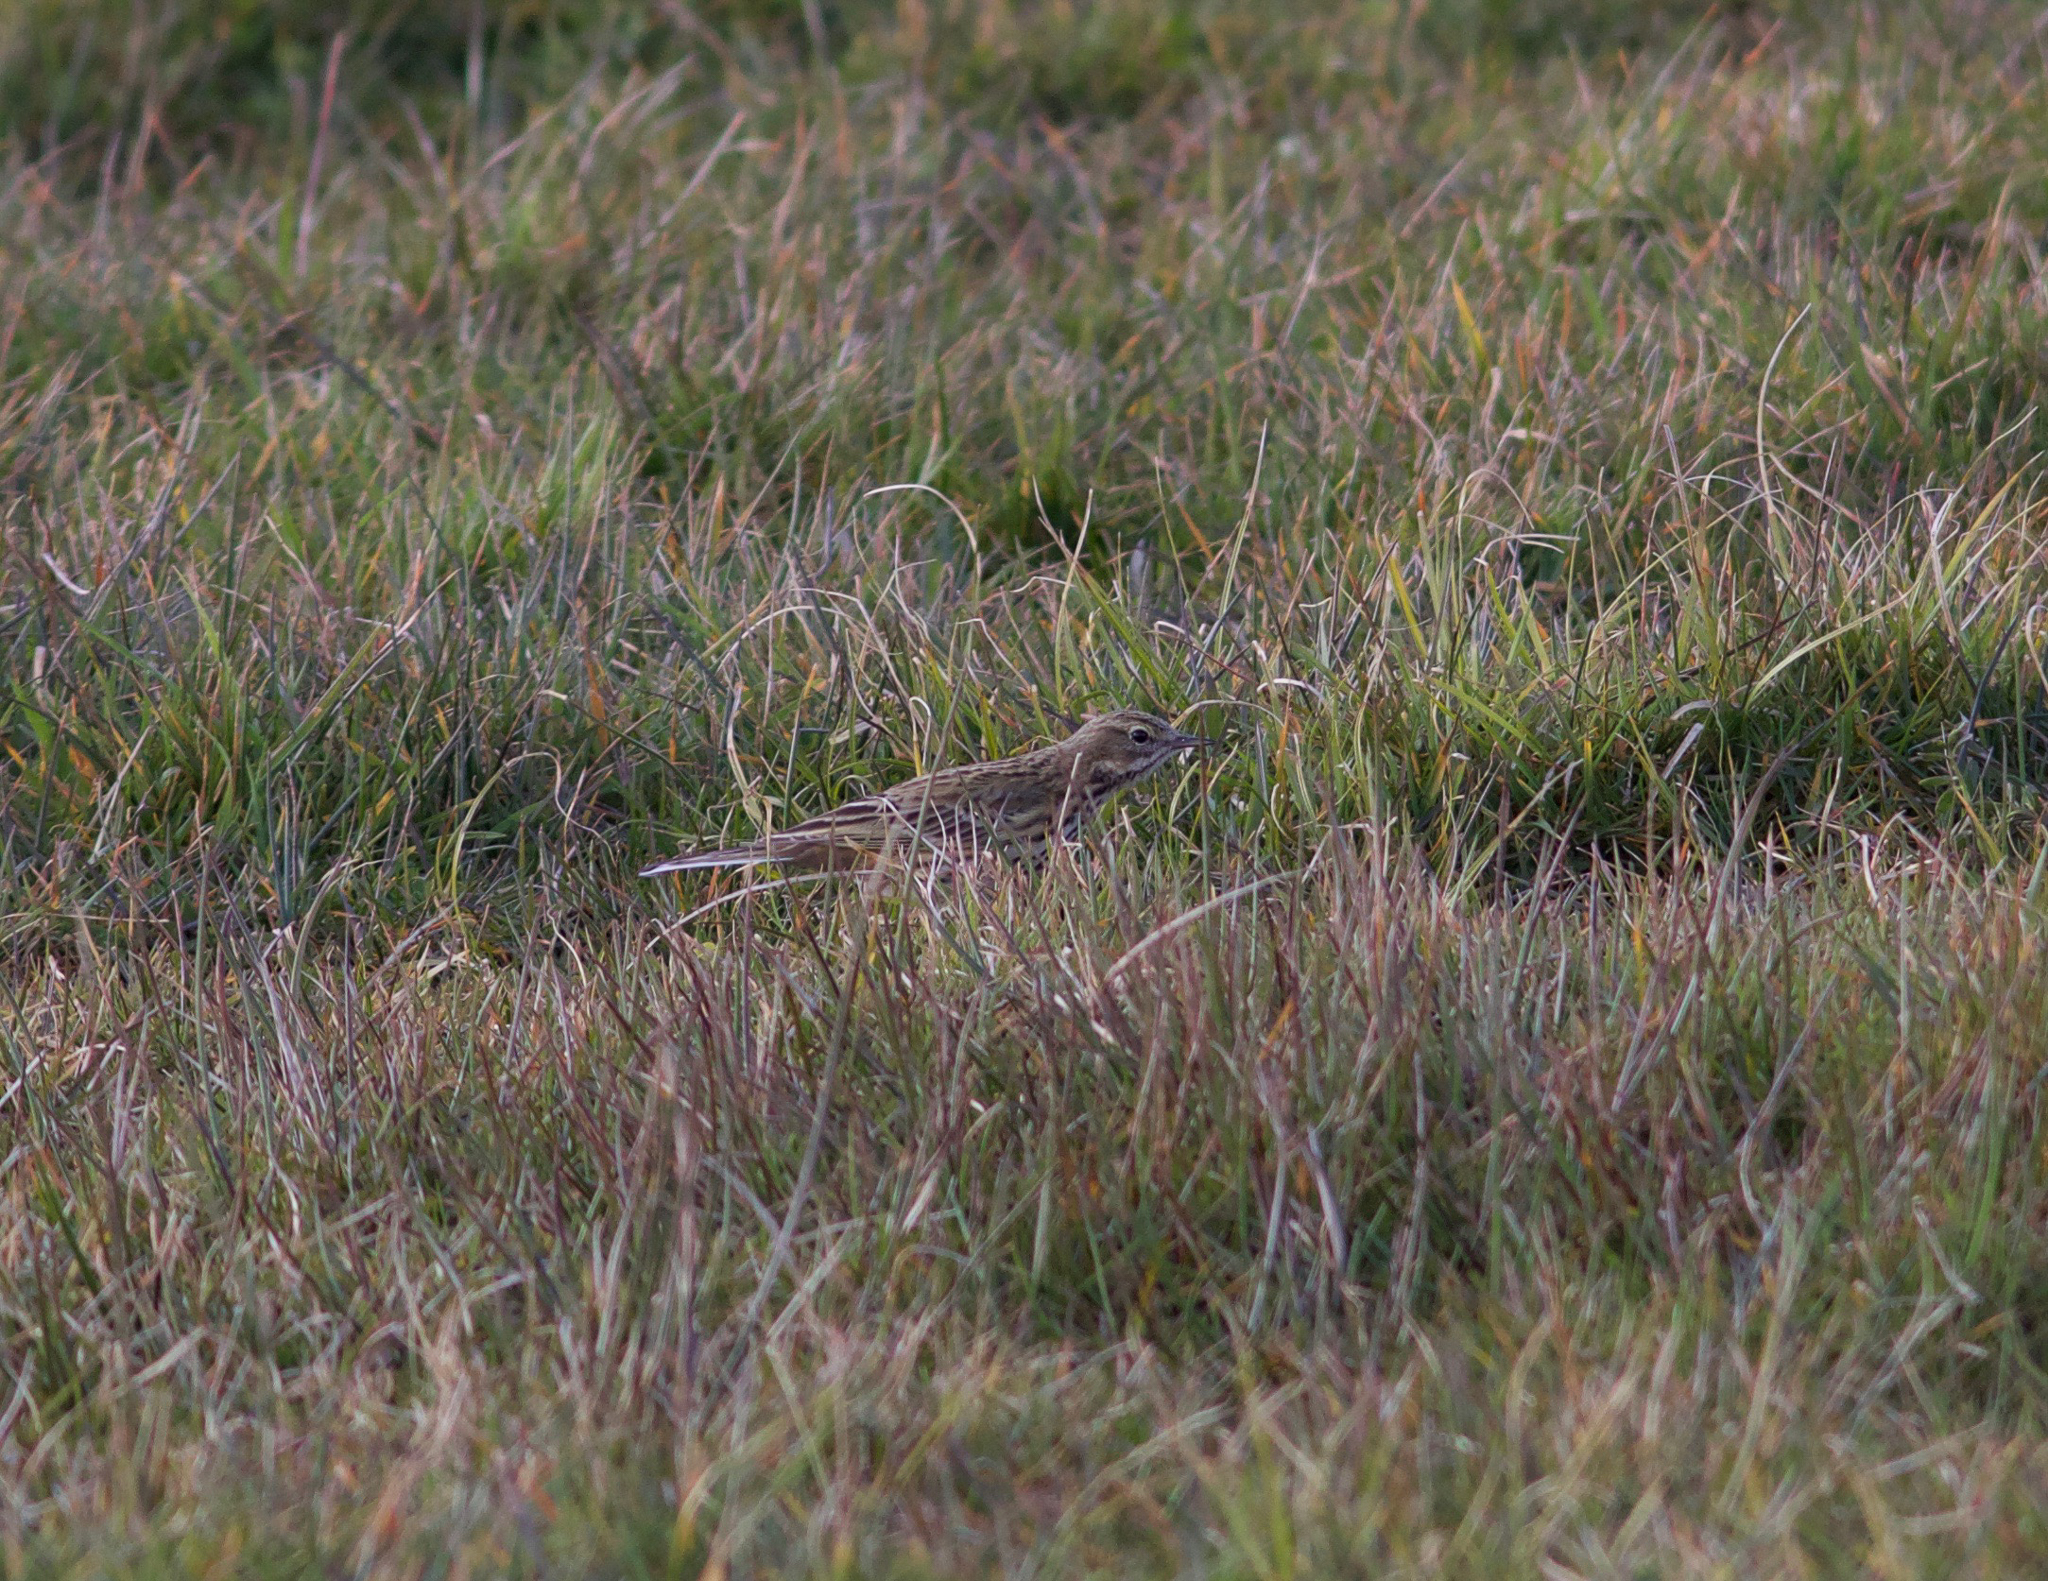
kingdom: Animalia
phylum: Chordata
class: Aves
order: Passeriformes
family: Motacillidae
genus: Anthus
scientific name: Anthus pratensis
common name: Meadow pipit
